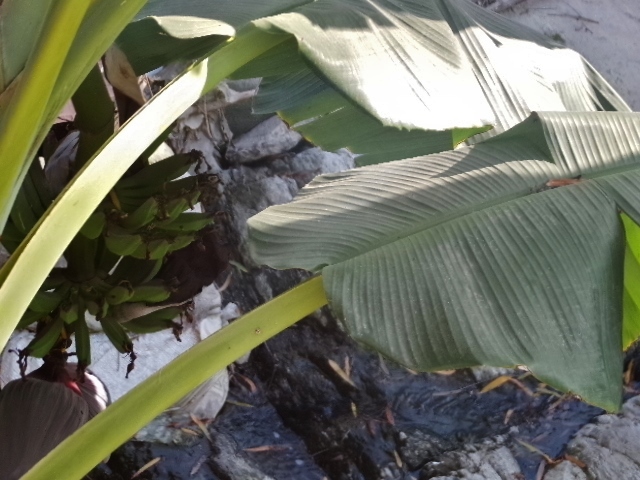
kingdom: Plantae
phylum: Tracheophyta
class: Liliopsida
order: Zingiberales
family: Musaceae
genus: Musa
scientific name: Musa paradisiaca
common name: French plantain
